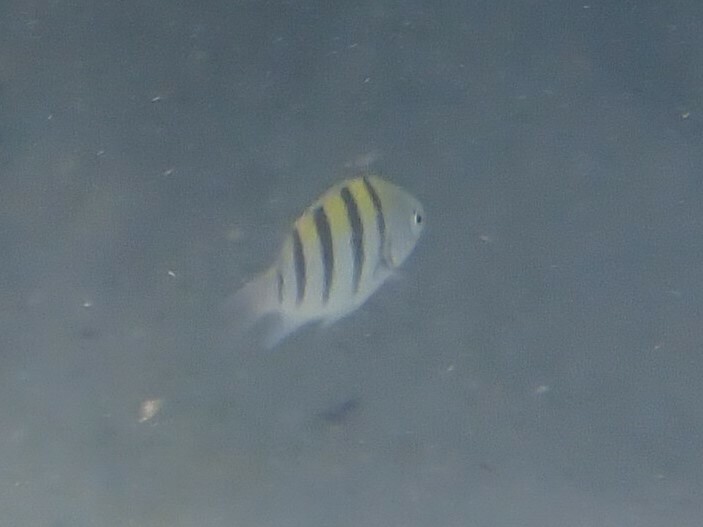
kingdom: Animalia
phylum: Chordata
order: Perciformes
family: Pomacentridae
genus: Abudefduf
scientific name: Abudefduf saxatilis
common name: Sergeant major
